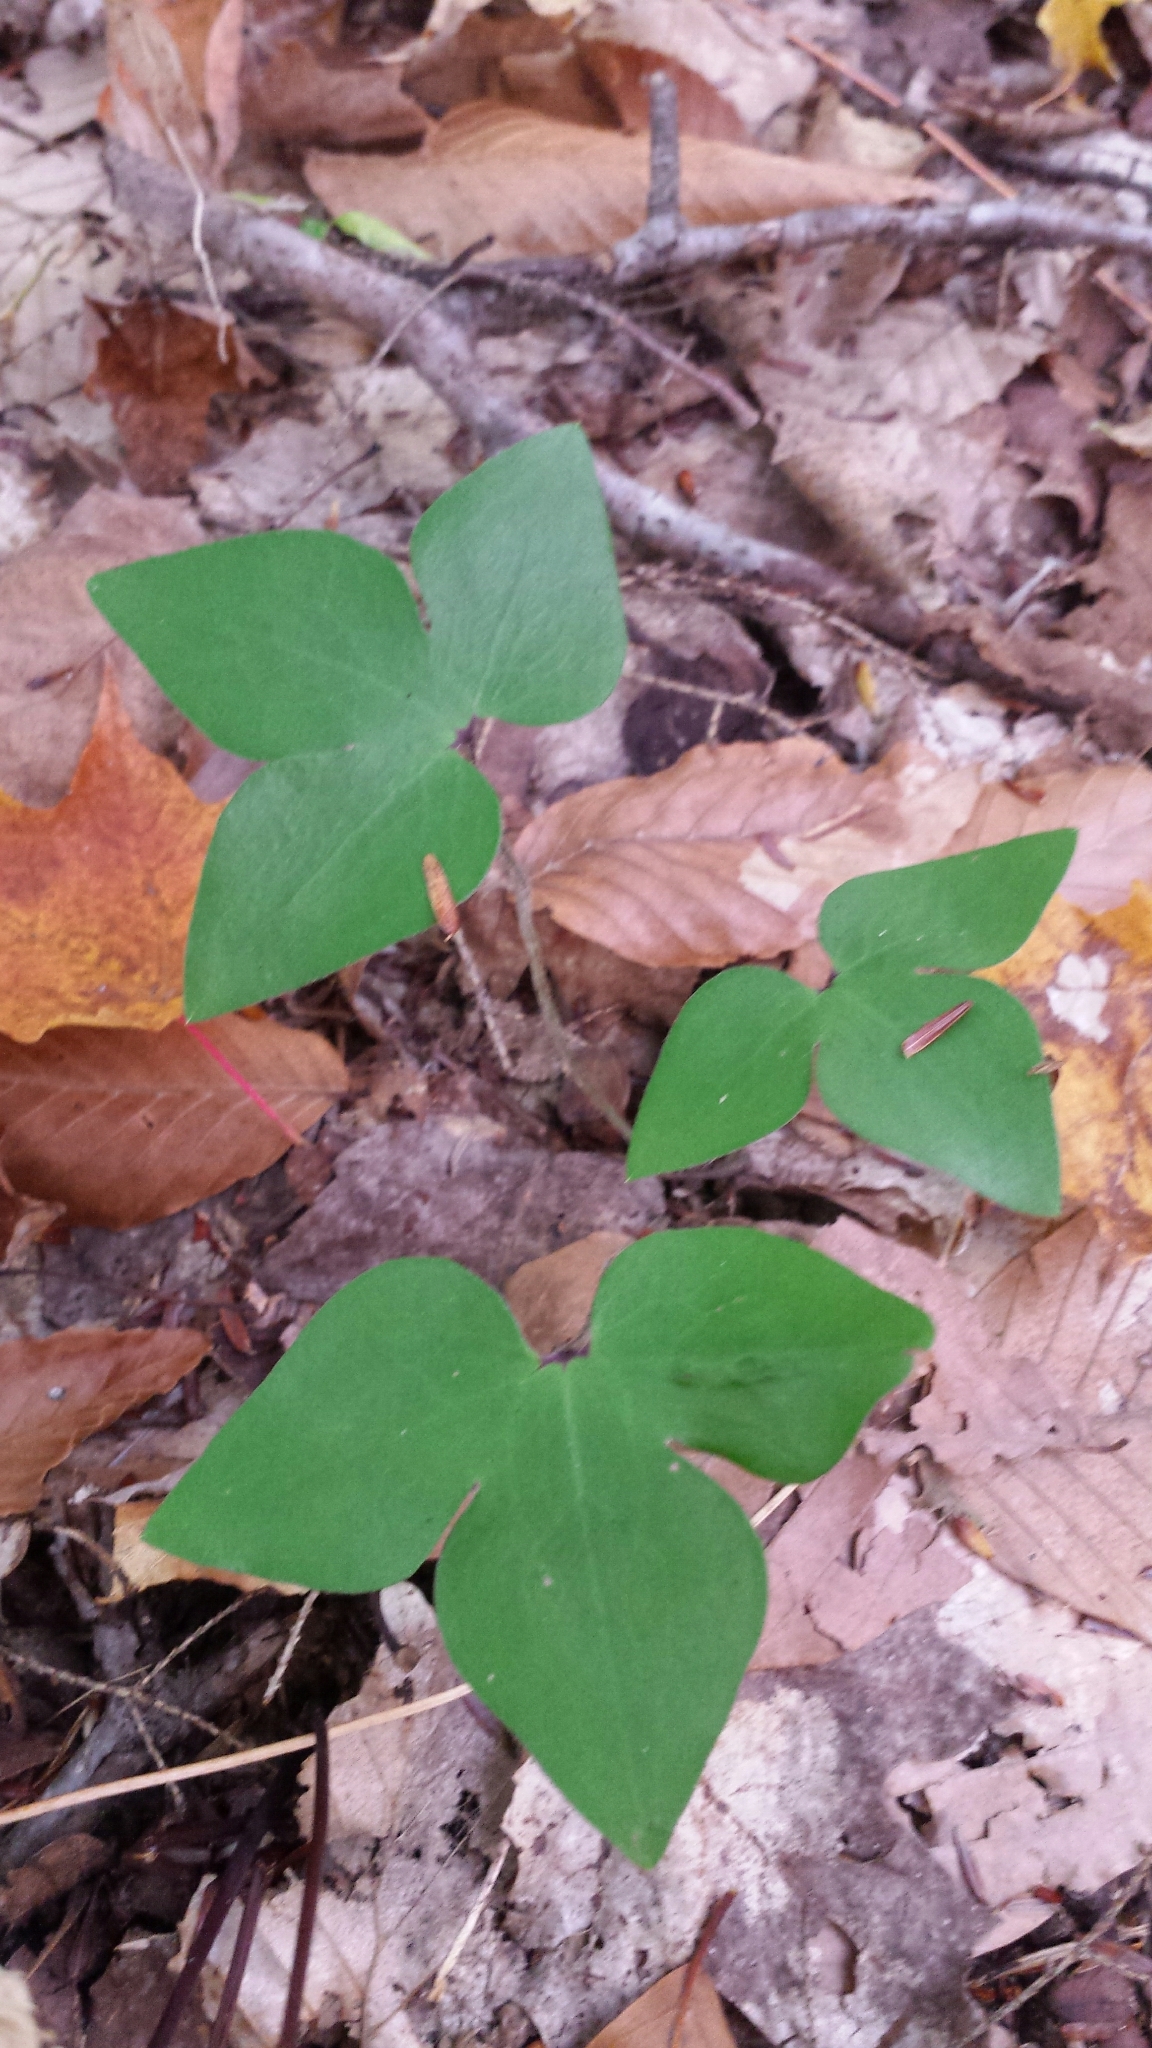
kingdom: Plantae
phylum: Tracheophyta
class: Magnoliopsida
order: Ranunculales
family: Ranunculaceae
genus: Hepatica
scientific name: Hepatica acutiloba
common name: Sharp-lobed hepatica
